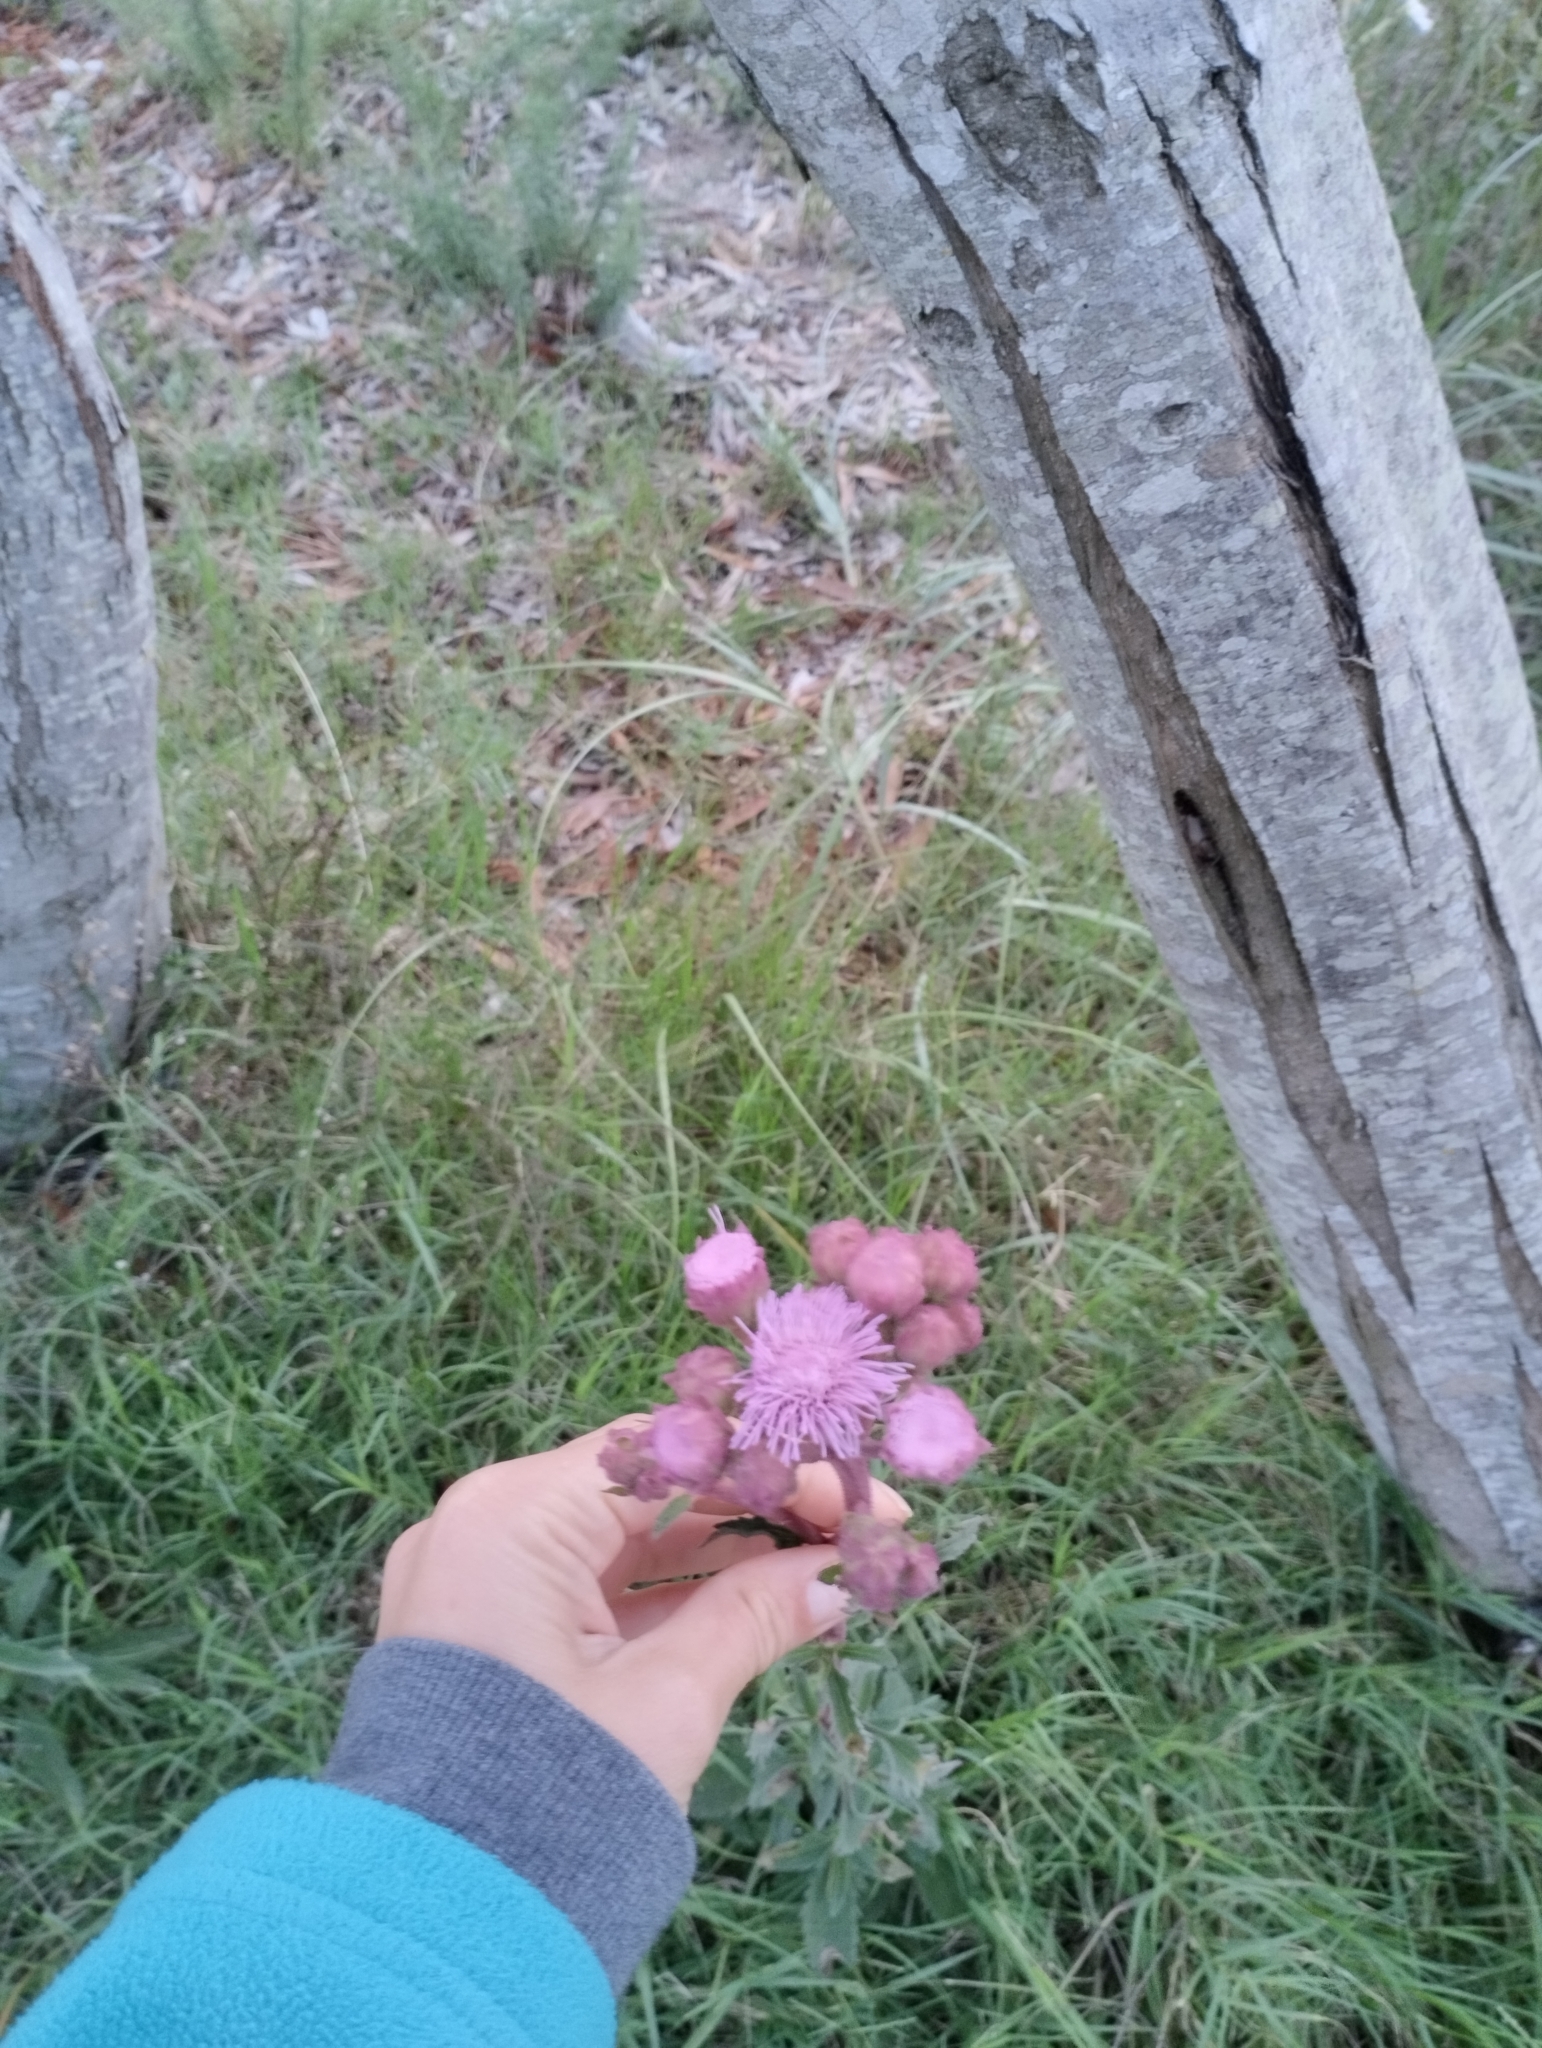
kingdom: Plantae
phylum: Tracheophyta
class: Magnoliopsida
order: Asterales
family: Asteraceae
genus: Campuloclinium
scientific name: Campuloclinium macrocephalum
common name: Pompomweed
